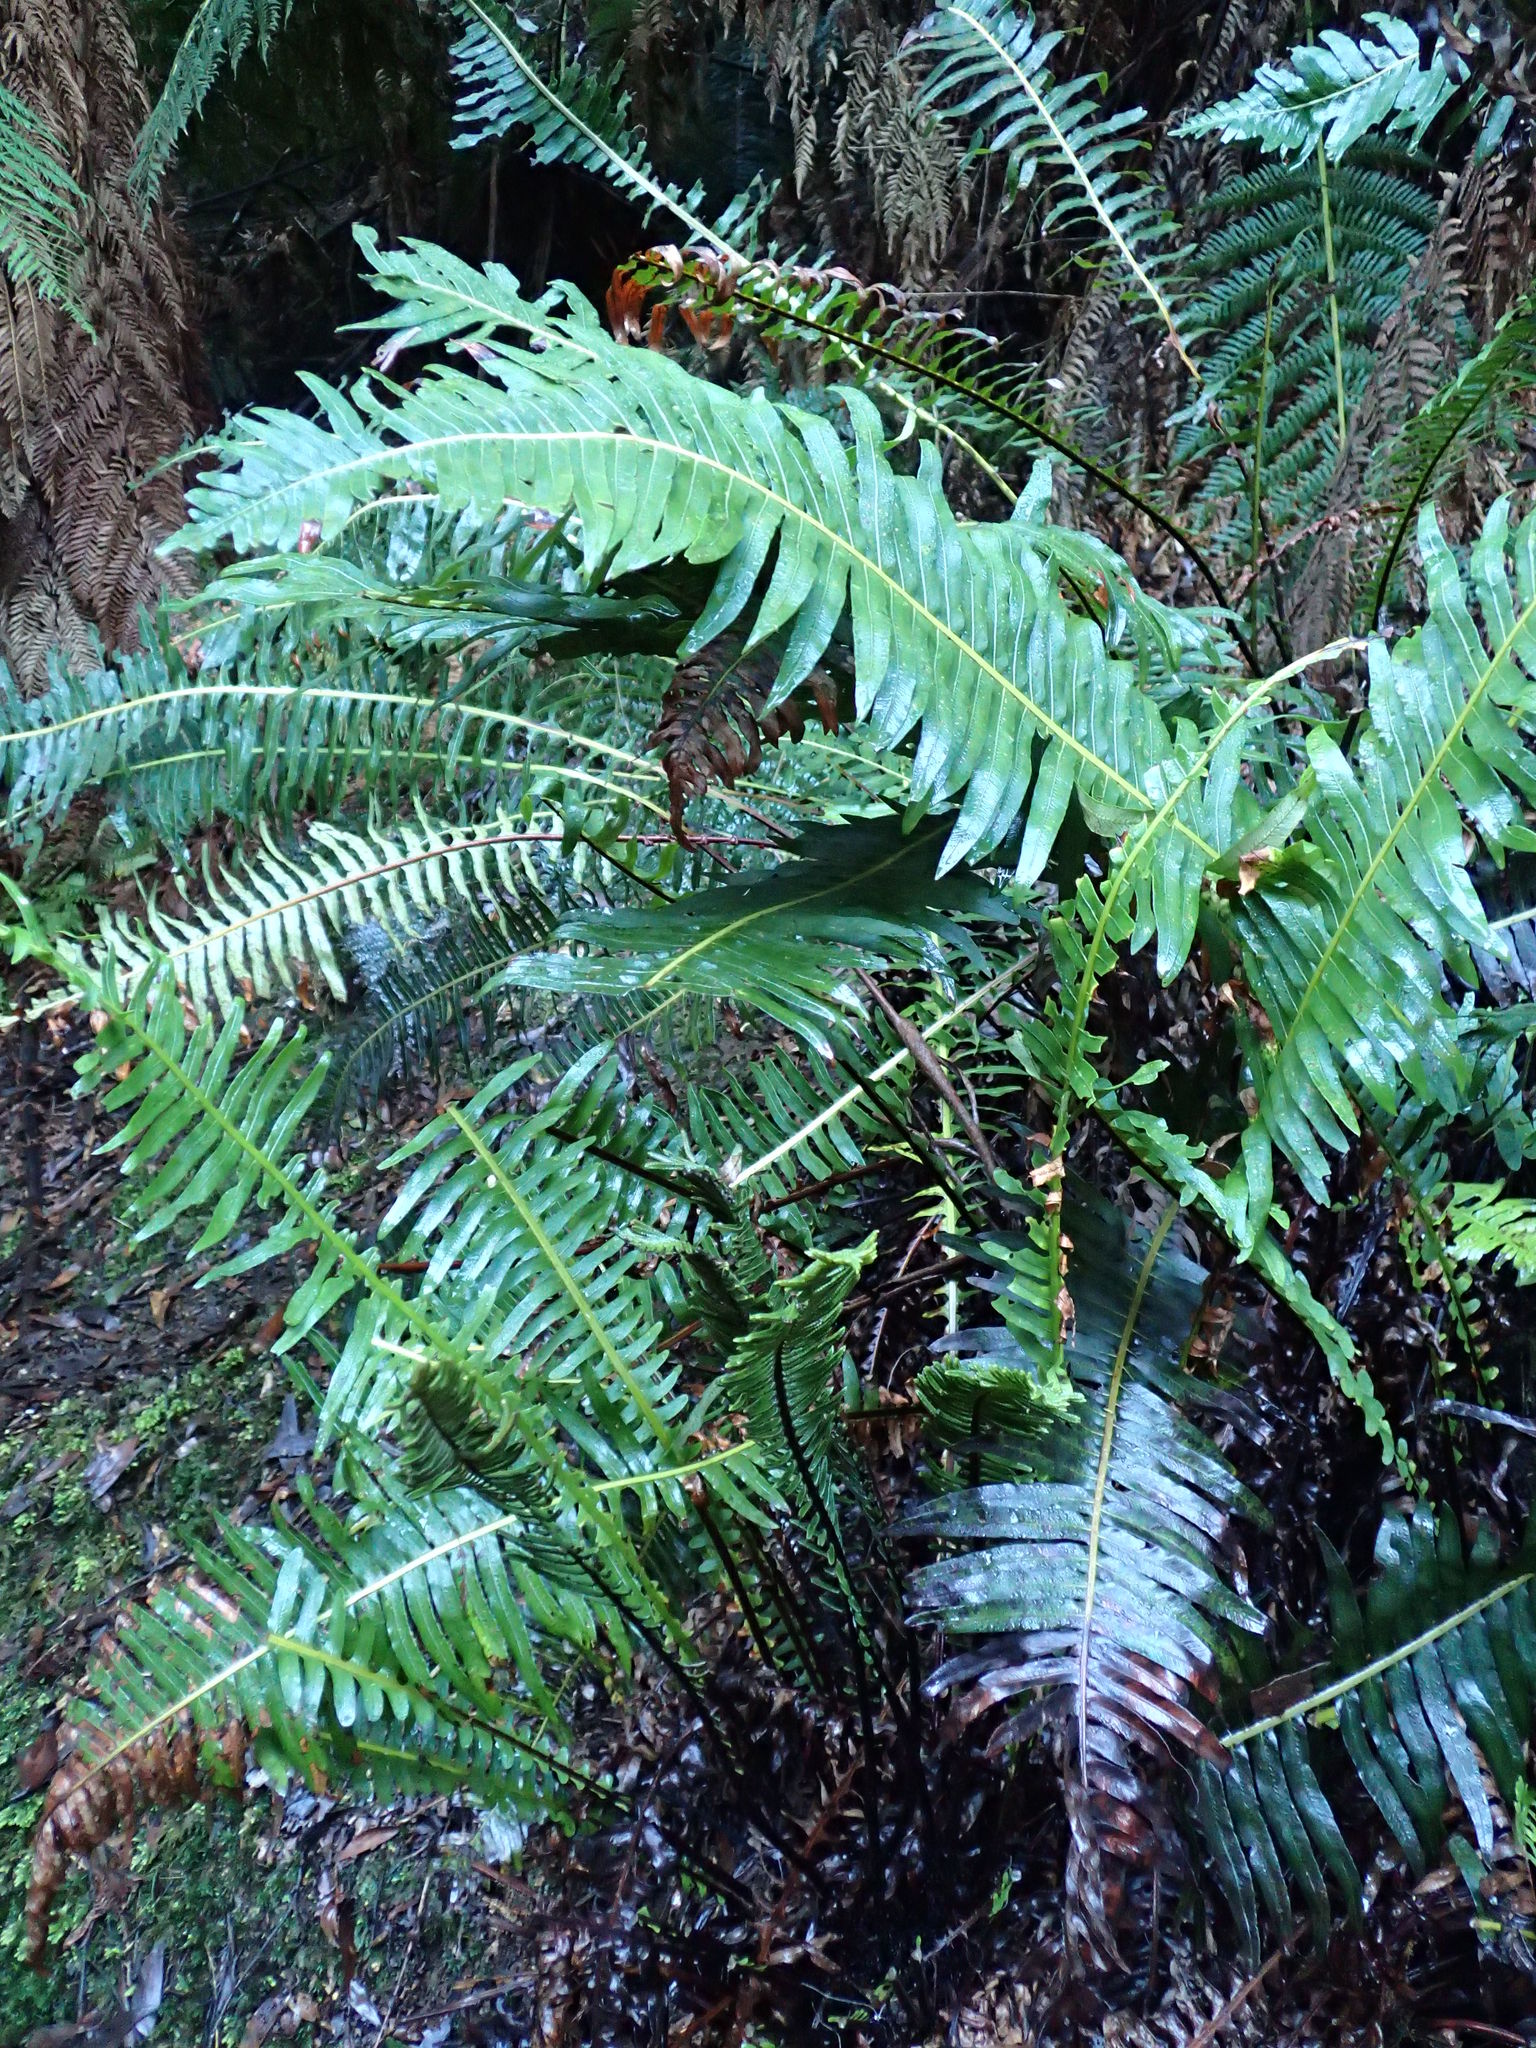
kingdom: Plantae
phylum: Tracheophyta
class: Polypodiopsida
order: Polypodiales
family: Blechnaceae
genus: Lomaria
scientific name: Lomaria nuda
